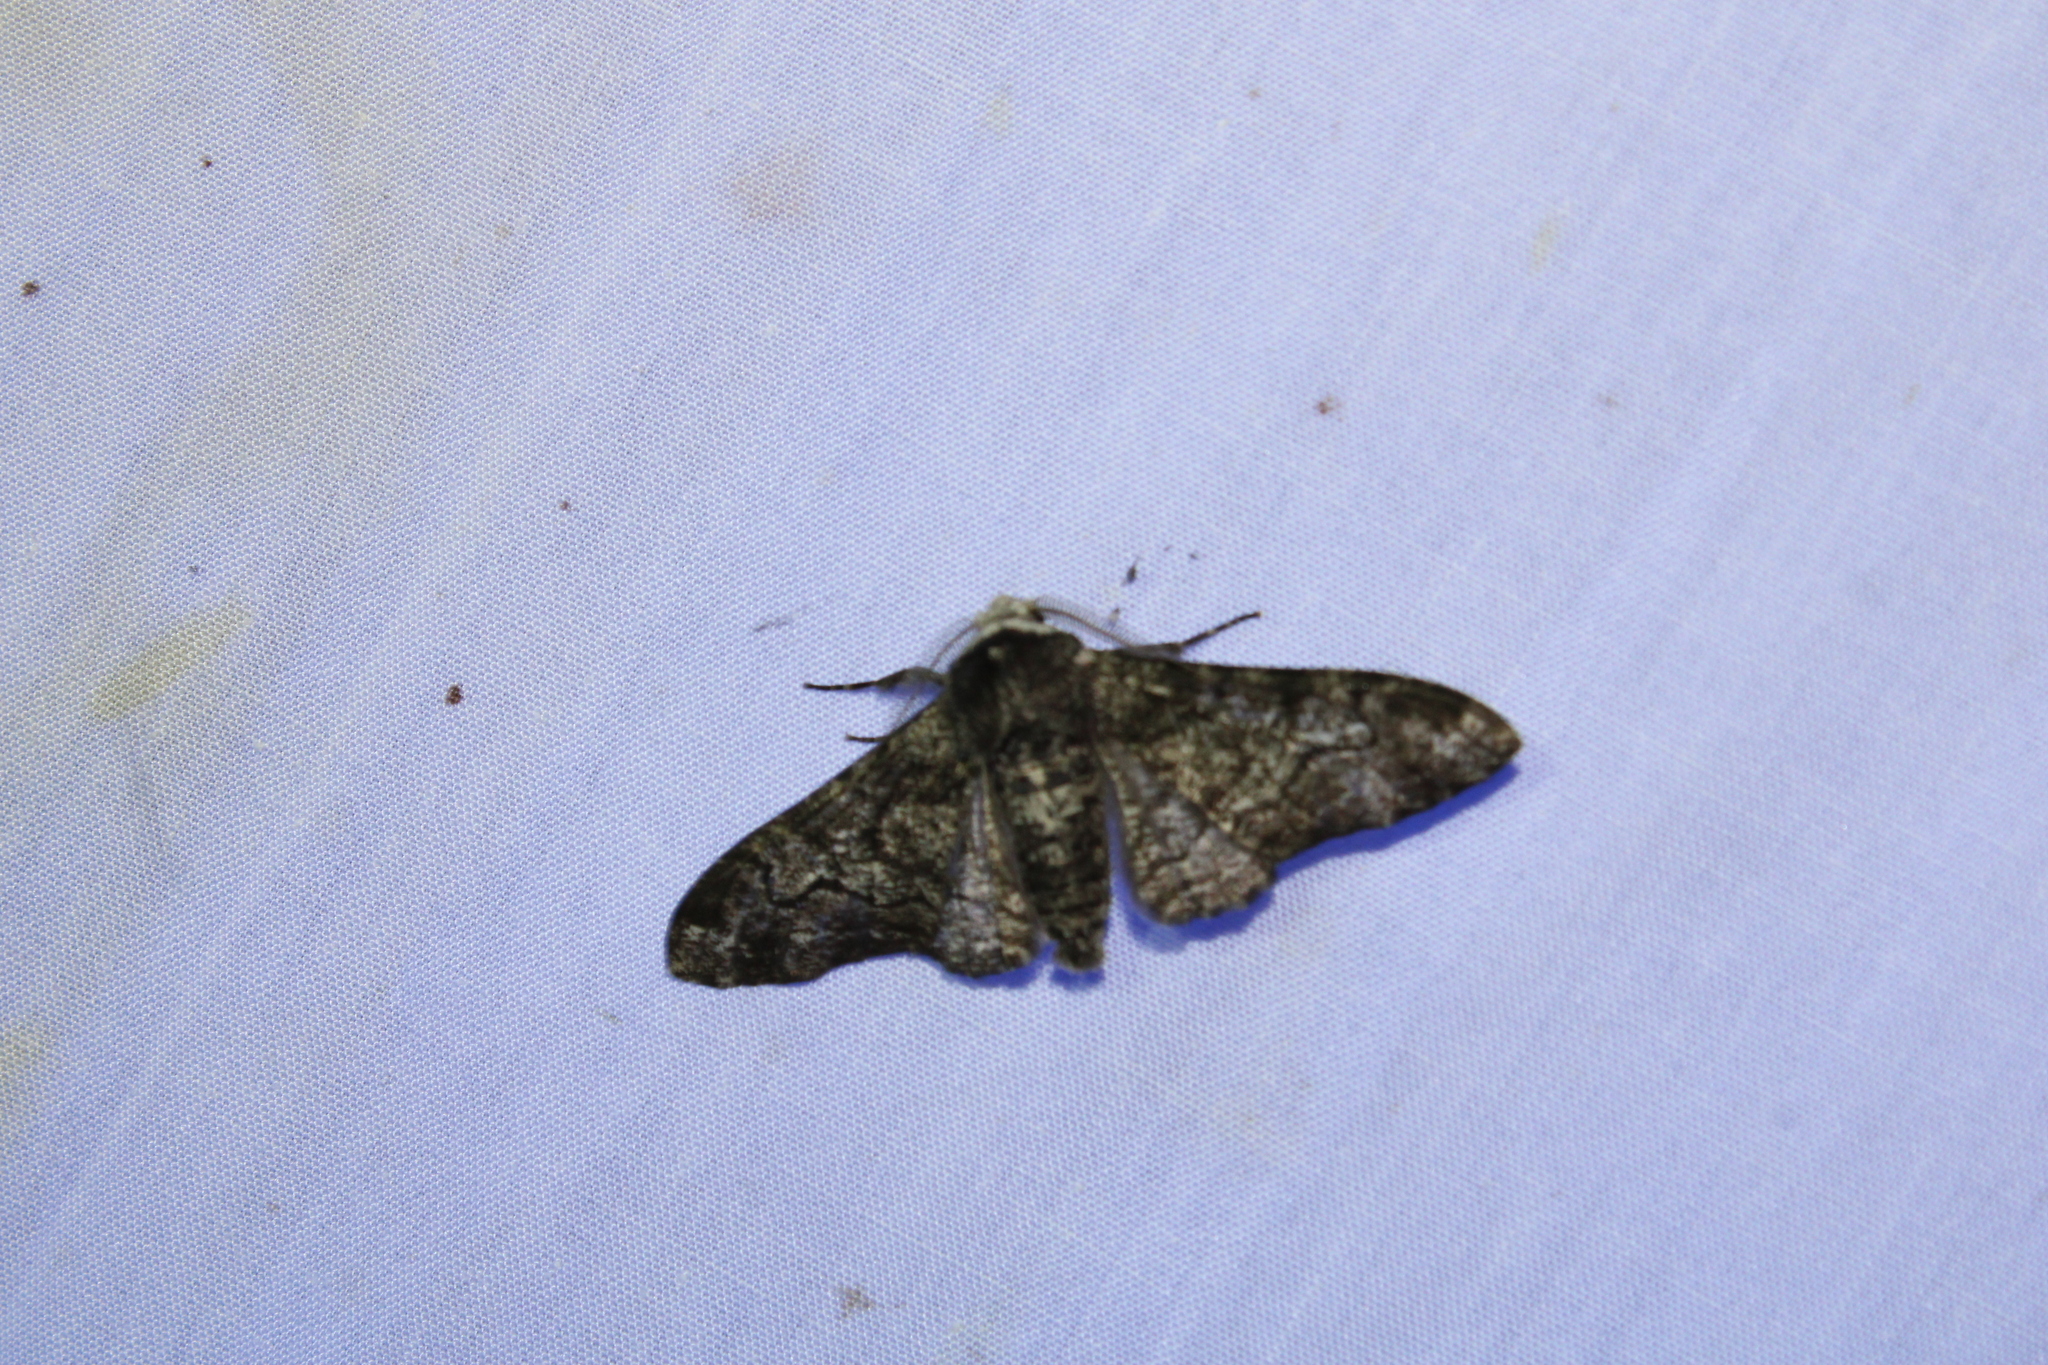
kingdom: Animalia
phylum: Arthropoda
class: Insecta
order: Lepidoptera
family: Geometridae
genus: Biston
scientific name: Biston betularia
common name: Peppered moth
